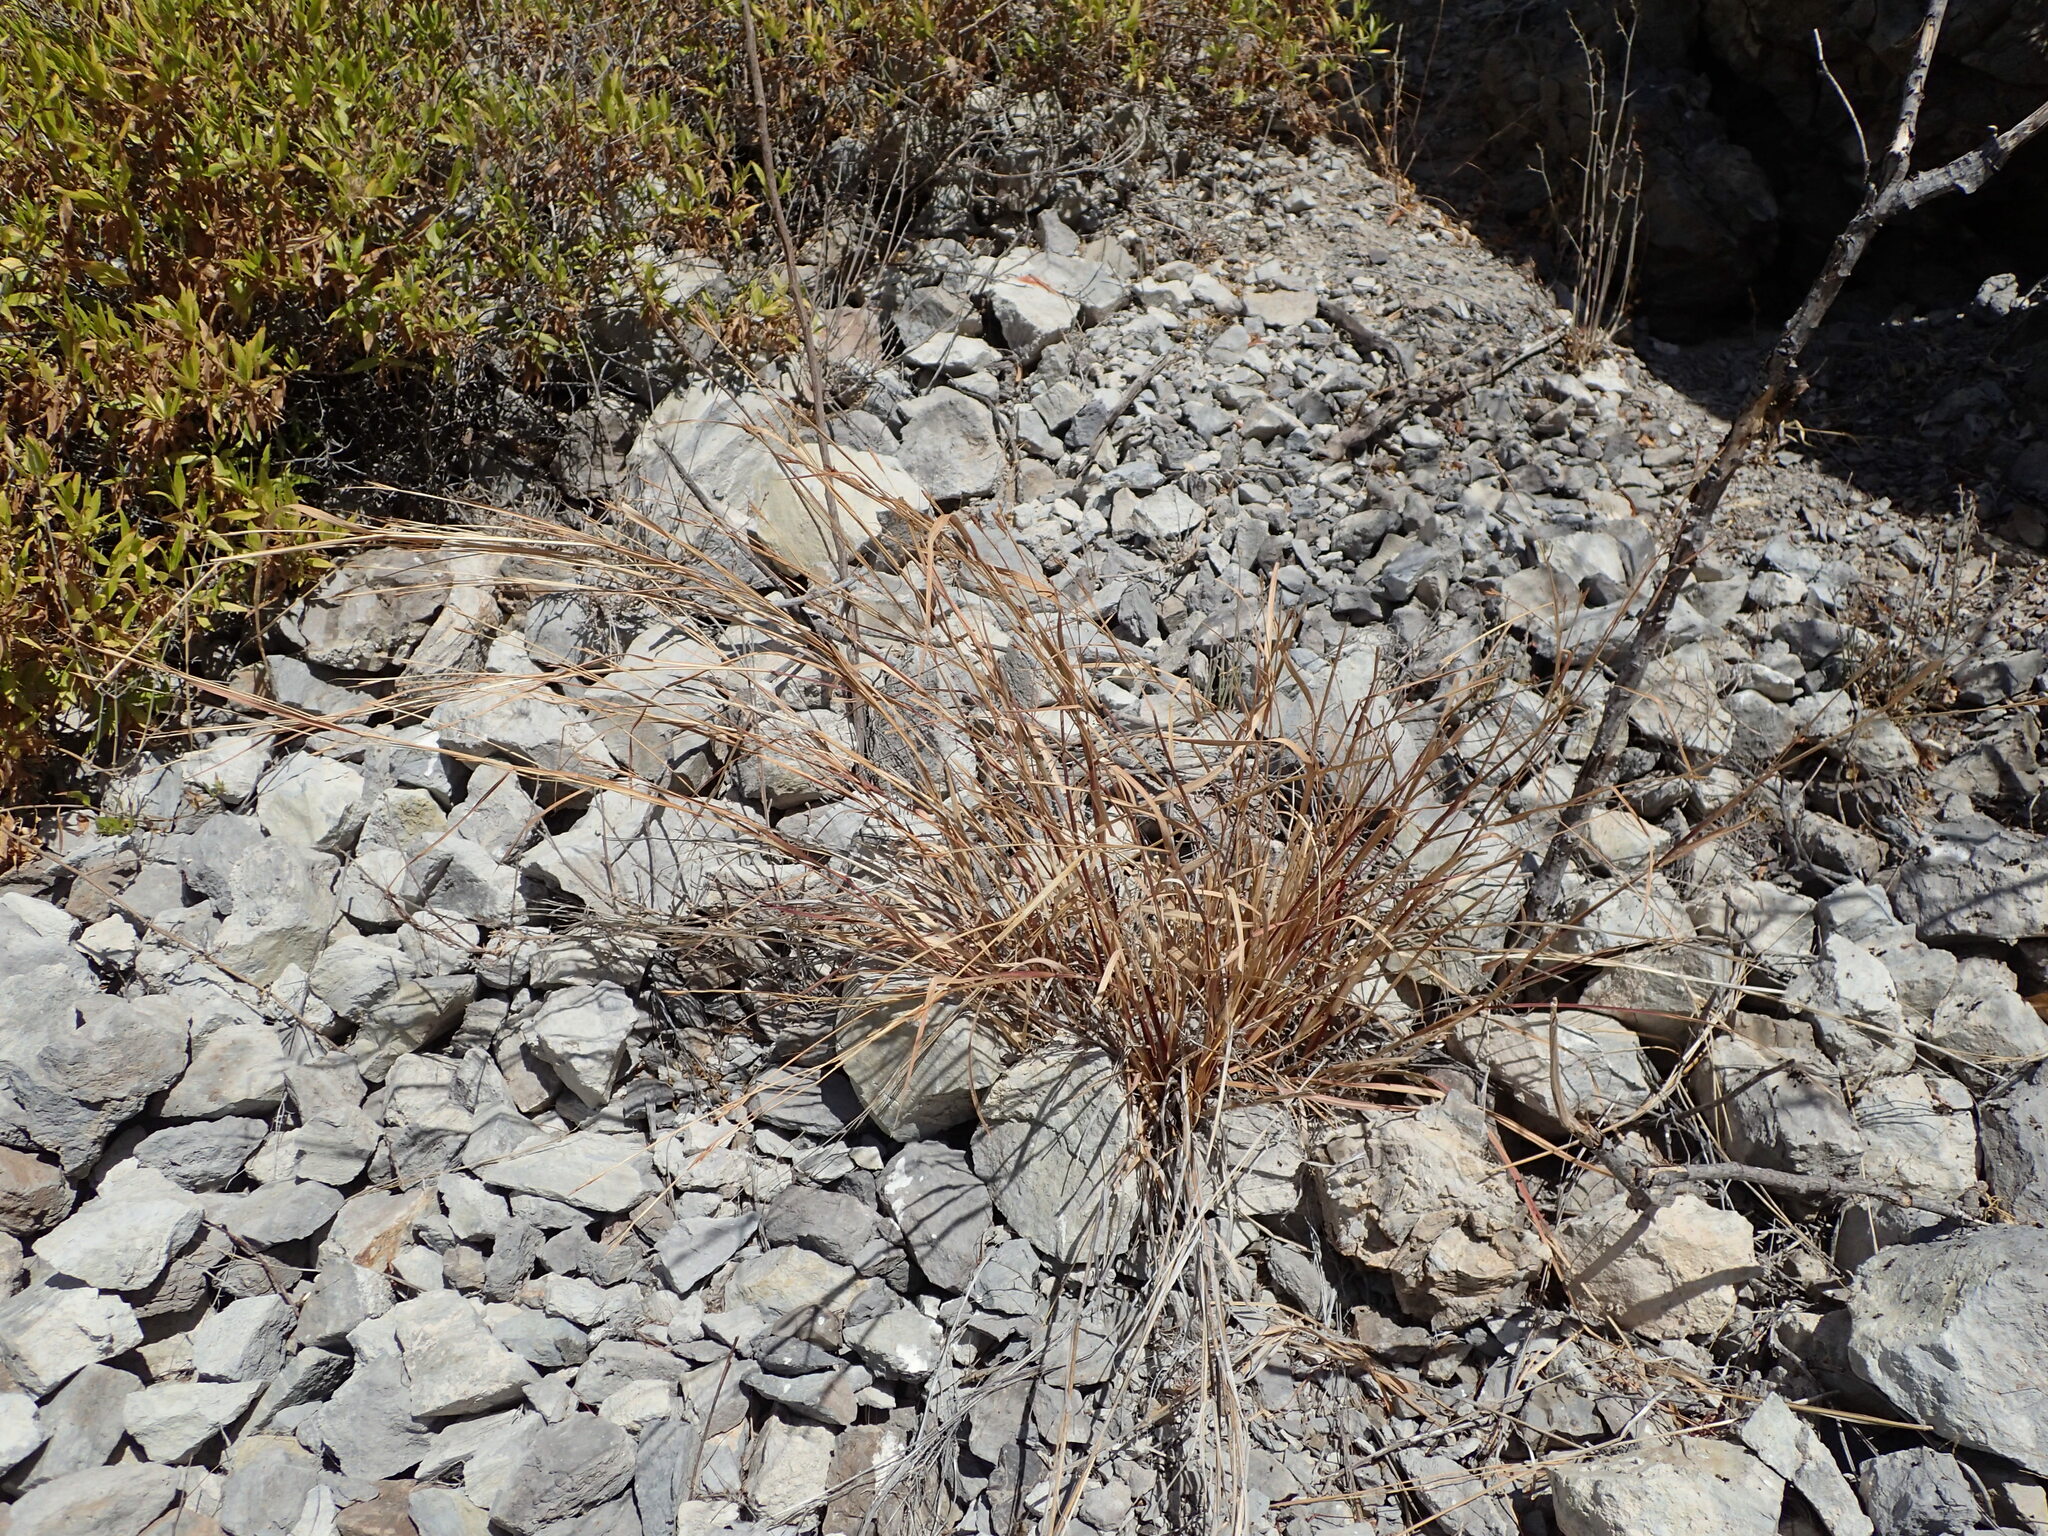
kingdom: Plantae
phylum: Tracheophyta
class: Liliopsida
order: Poales
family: Poaceae
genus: Heteropogon
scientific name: Heteropogon contortus
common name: Tanglehead
